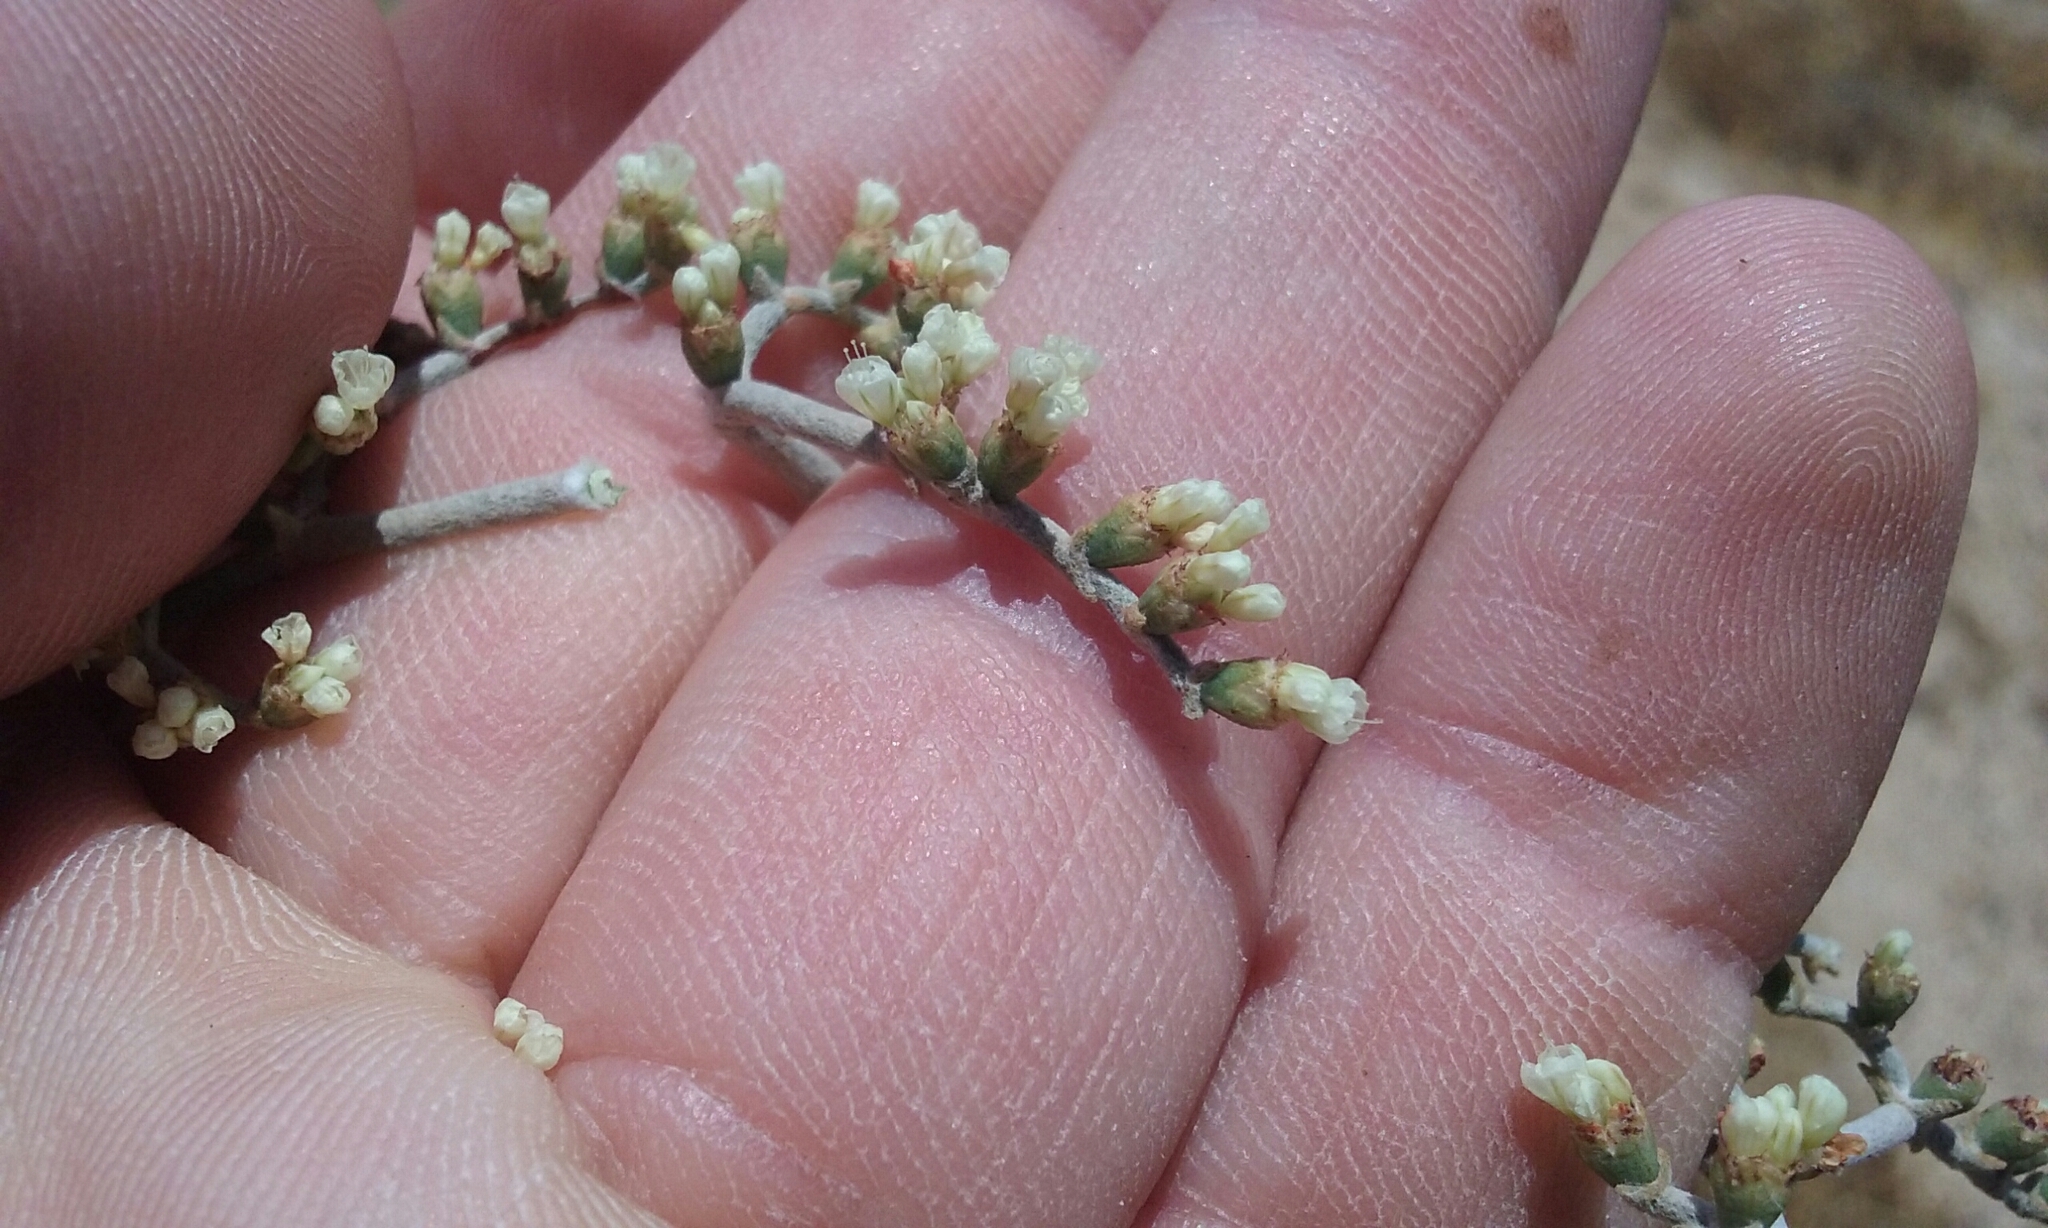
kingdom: Plantae
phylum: Tracheophyta
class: Magnoliopsida
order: Caryophyllales
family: Polygonaceae
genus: Eriogonum
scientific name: Eriogonum plumatella
